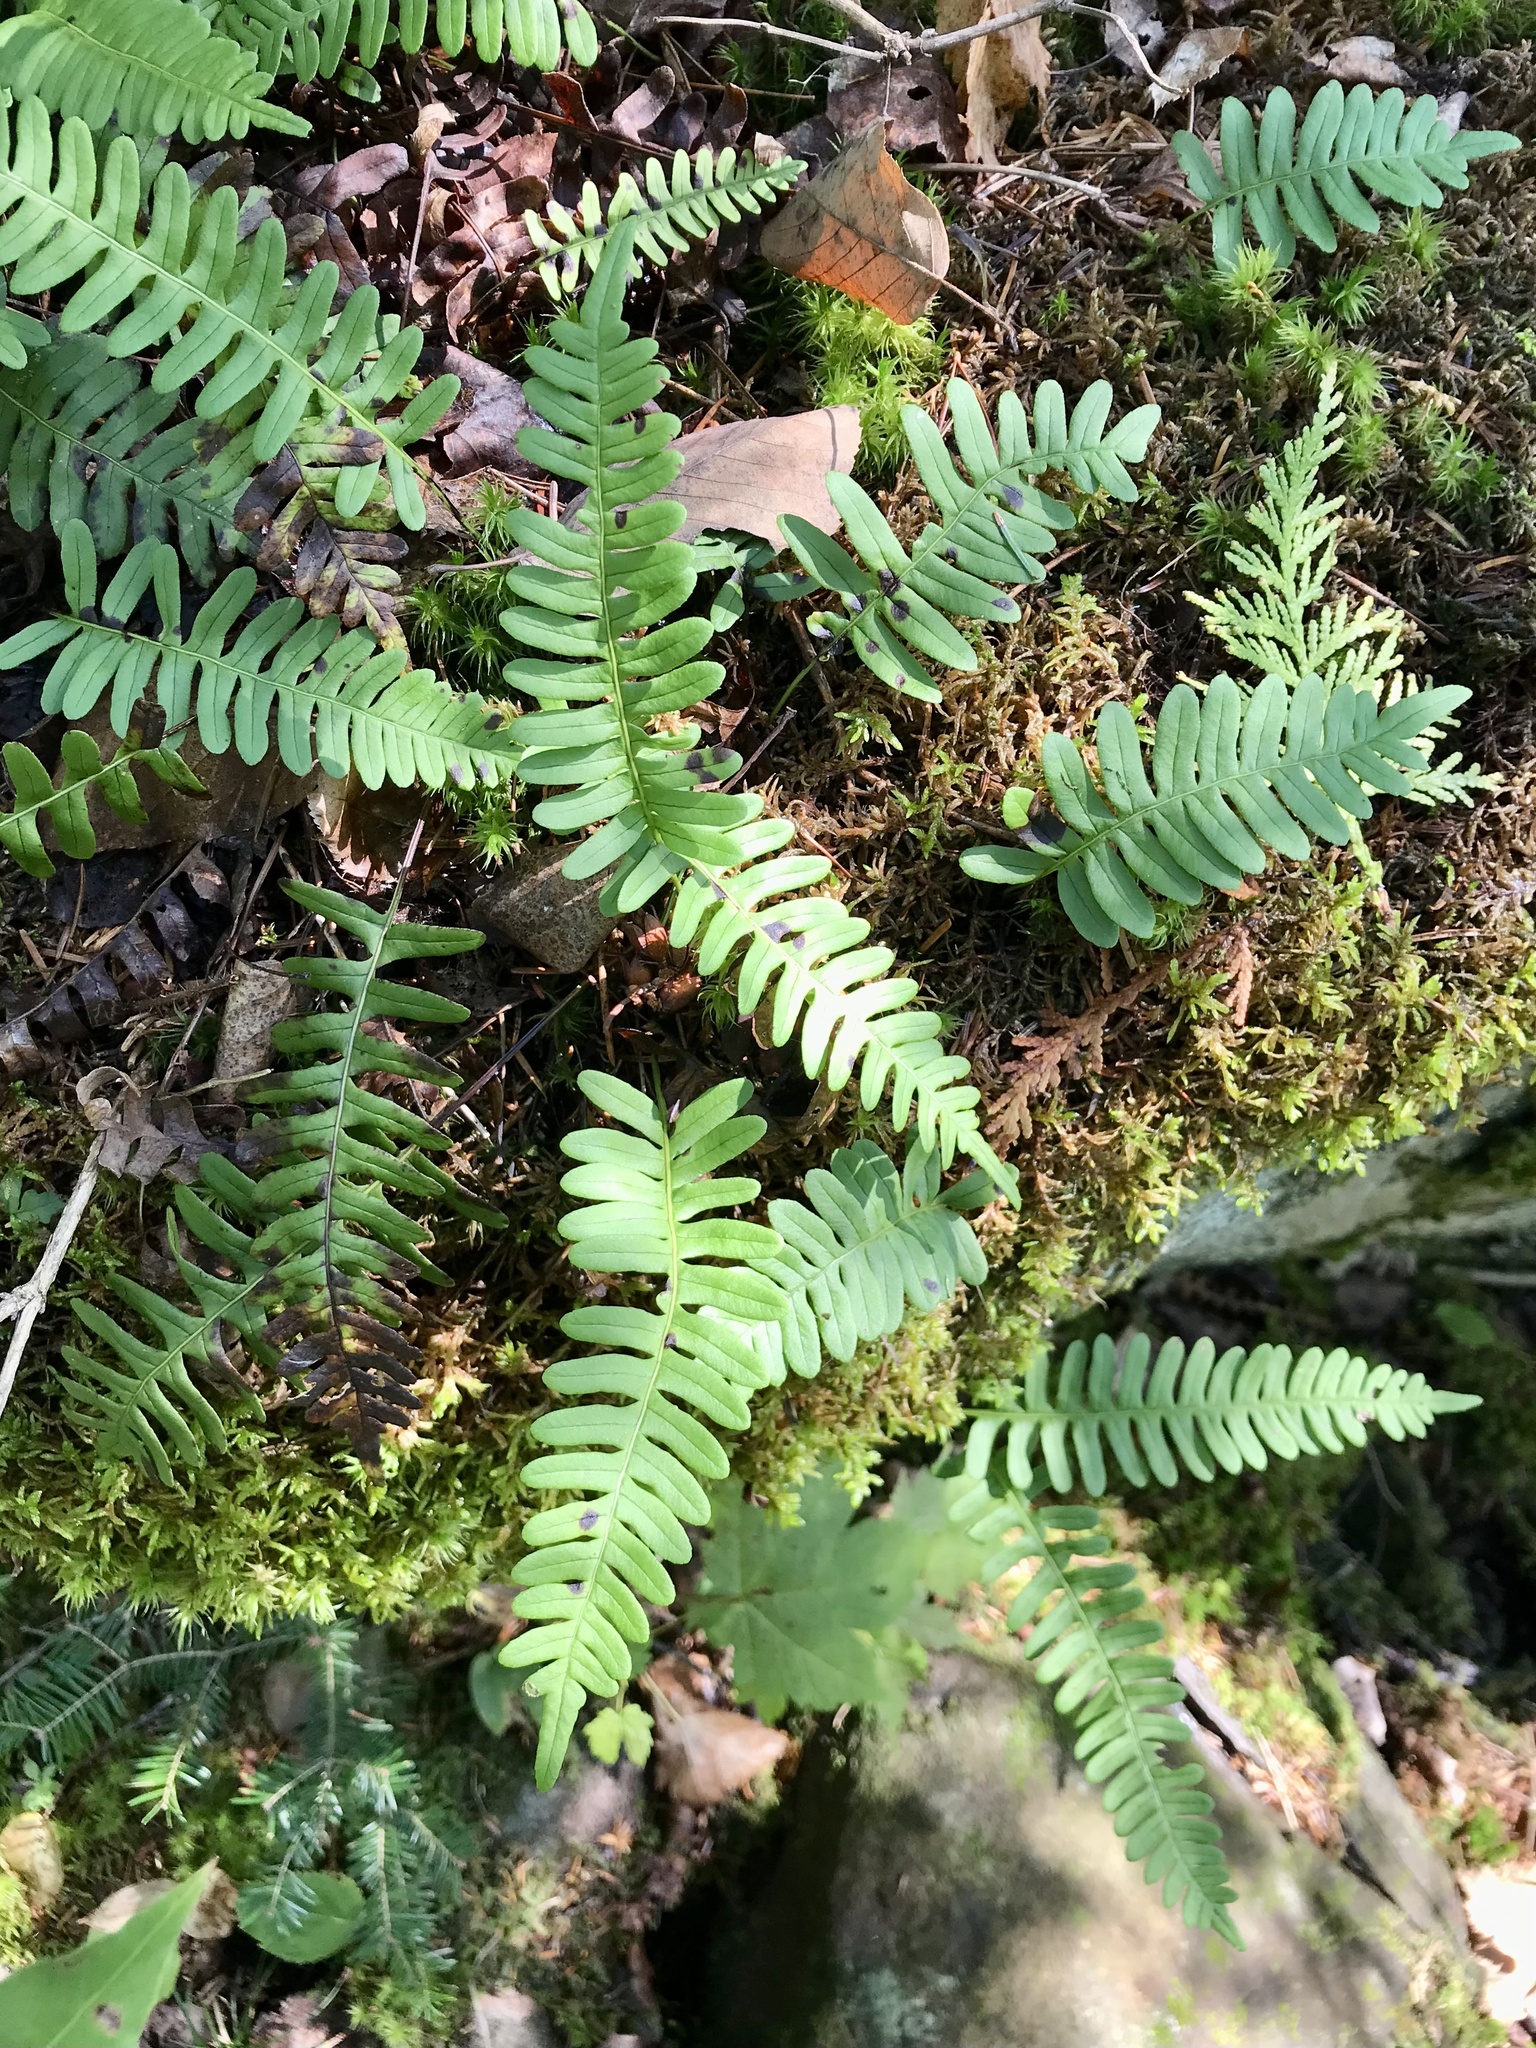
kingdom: Plantae
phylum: Tracheophyta
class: Polypodiopsida
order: Polypodiales
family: Polypodiaceae
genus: Polypodium
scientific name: Polypodium virginianum
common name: American wall fern
